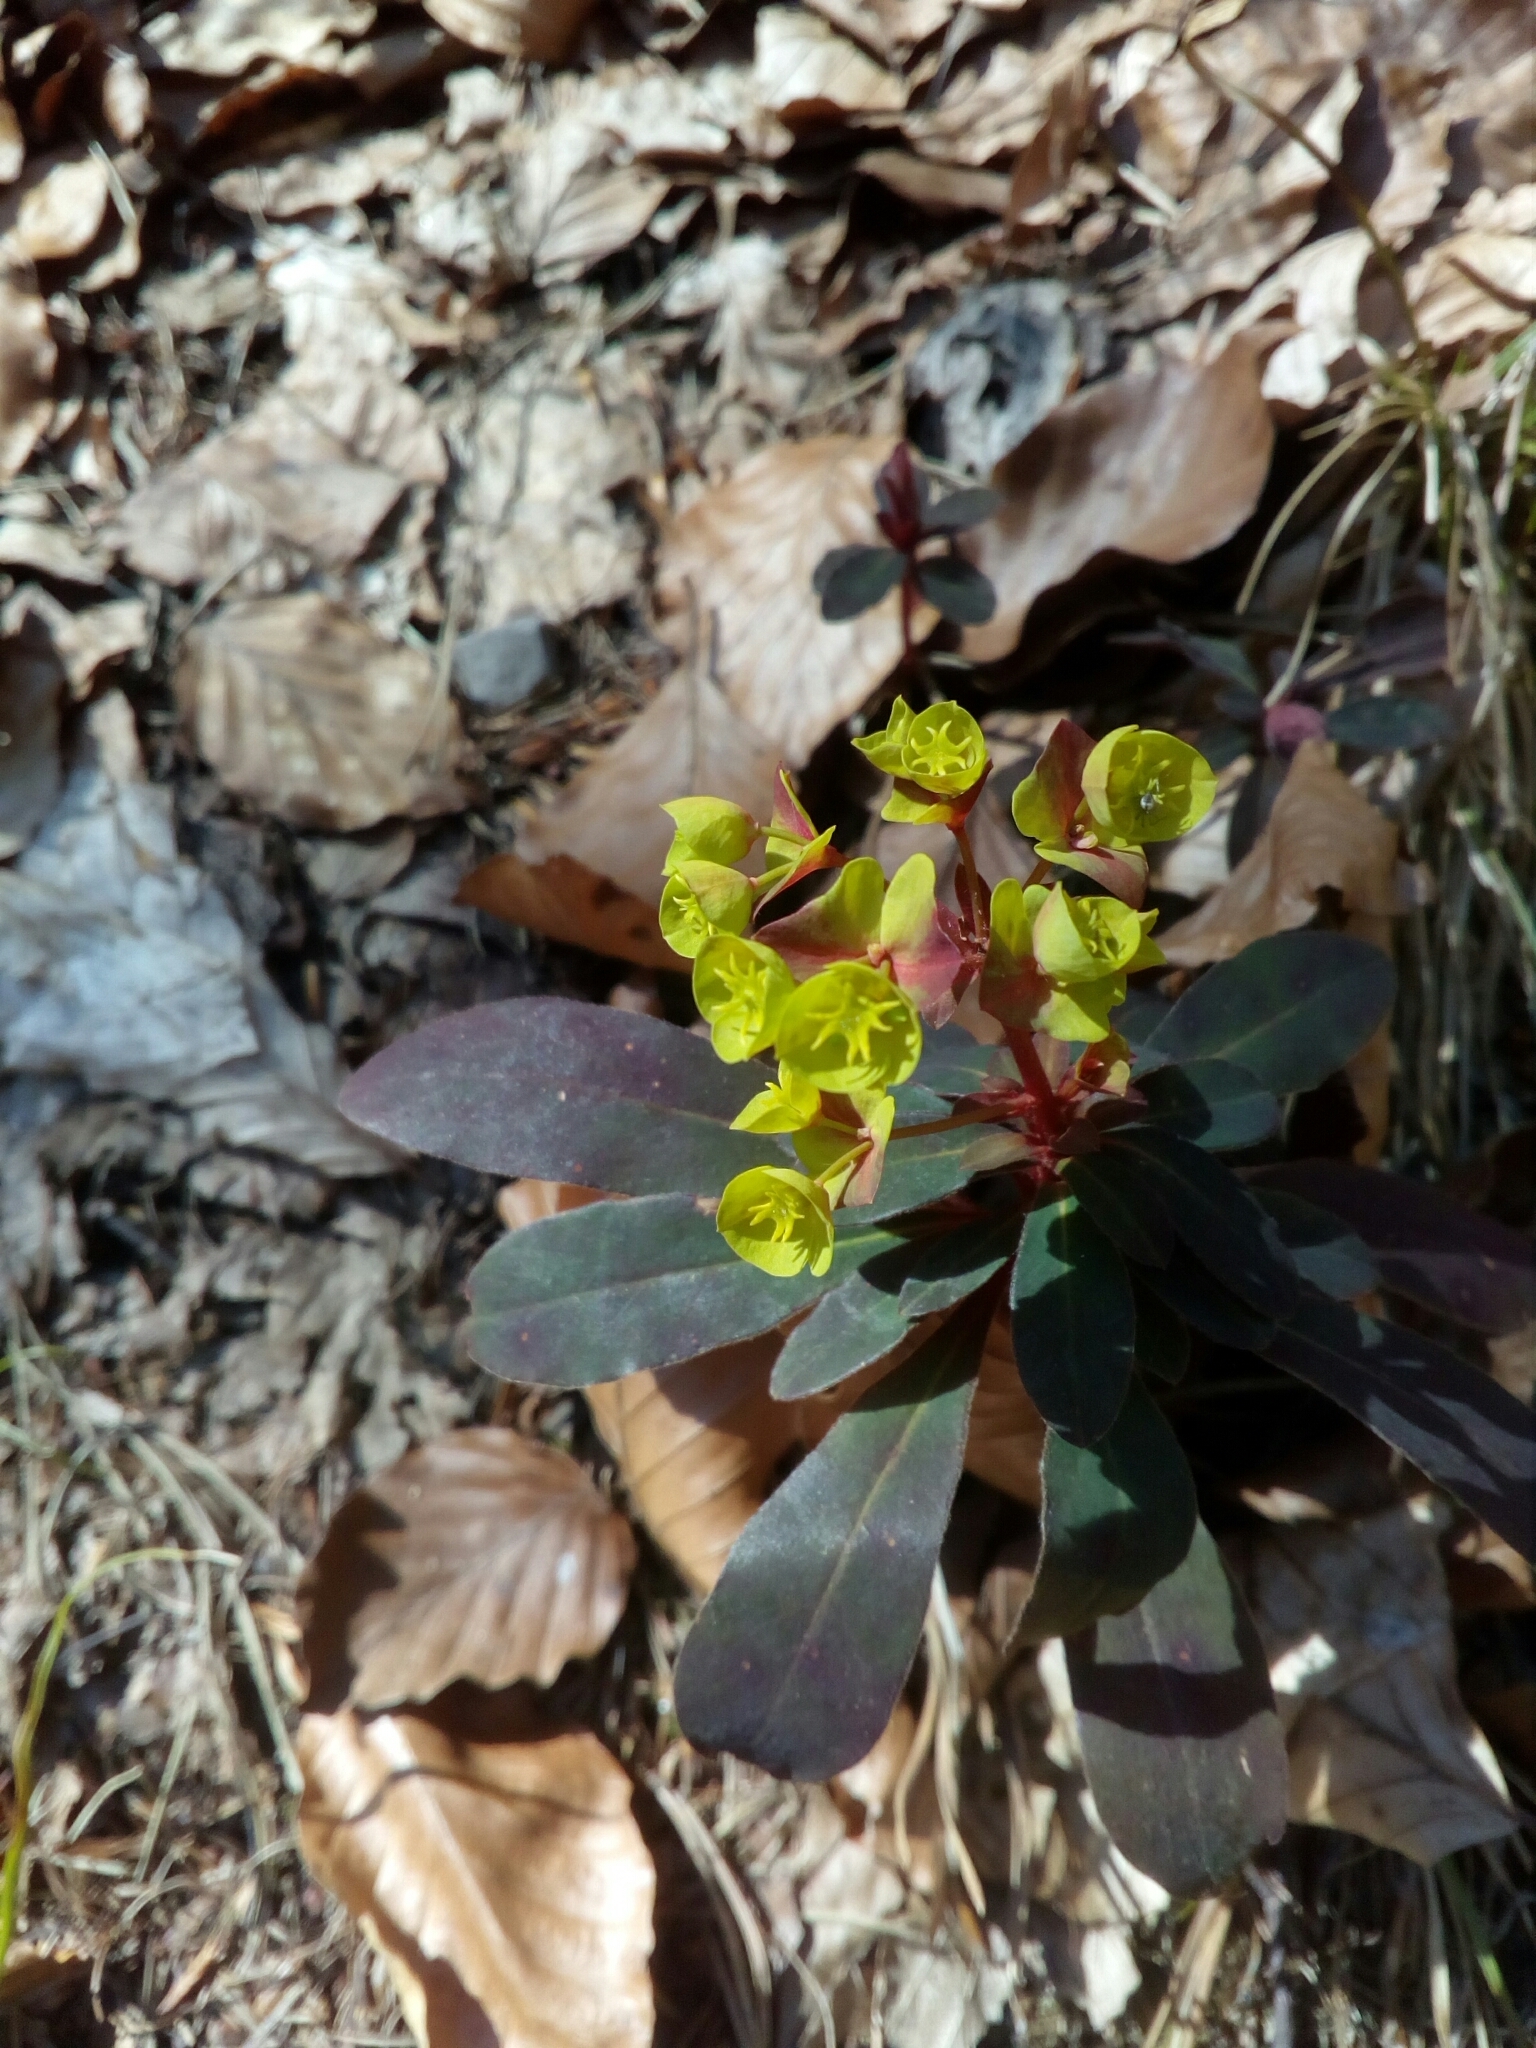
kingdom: Plantae
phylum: Tracheophyta
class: Magnoliopsida
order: Malpighiales
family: Euphorbiaceae
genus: Euphorbia
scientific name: Euphorbia amygdaloides
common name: Wood spurge
